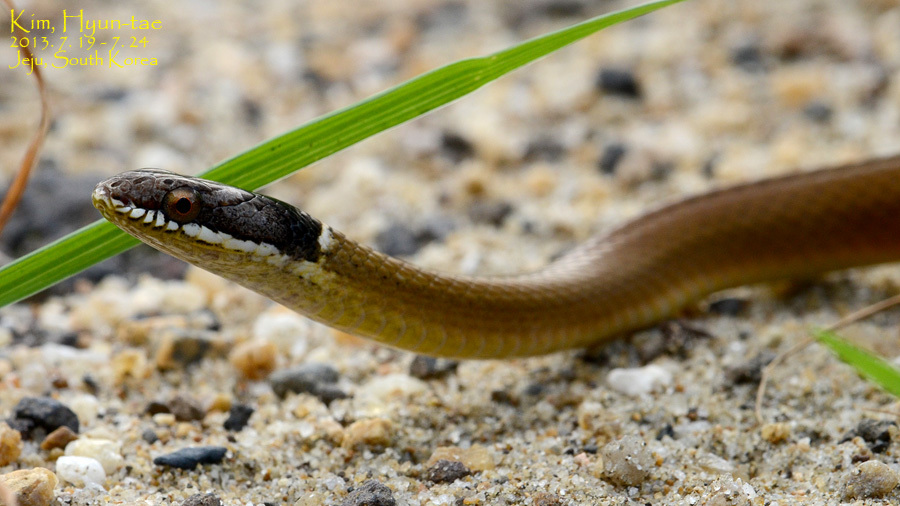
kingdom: Animalia
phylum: Chordata
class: Squamata
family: Colubridae
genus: Sibynophis
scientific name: Sibynophis chinensis
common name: Chinese many-tooth snake
